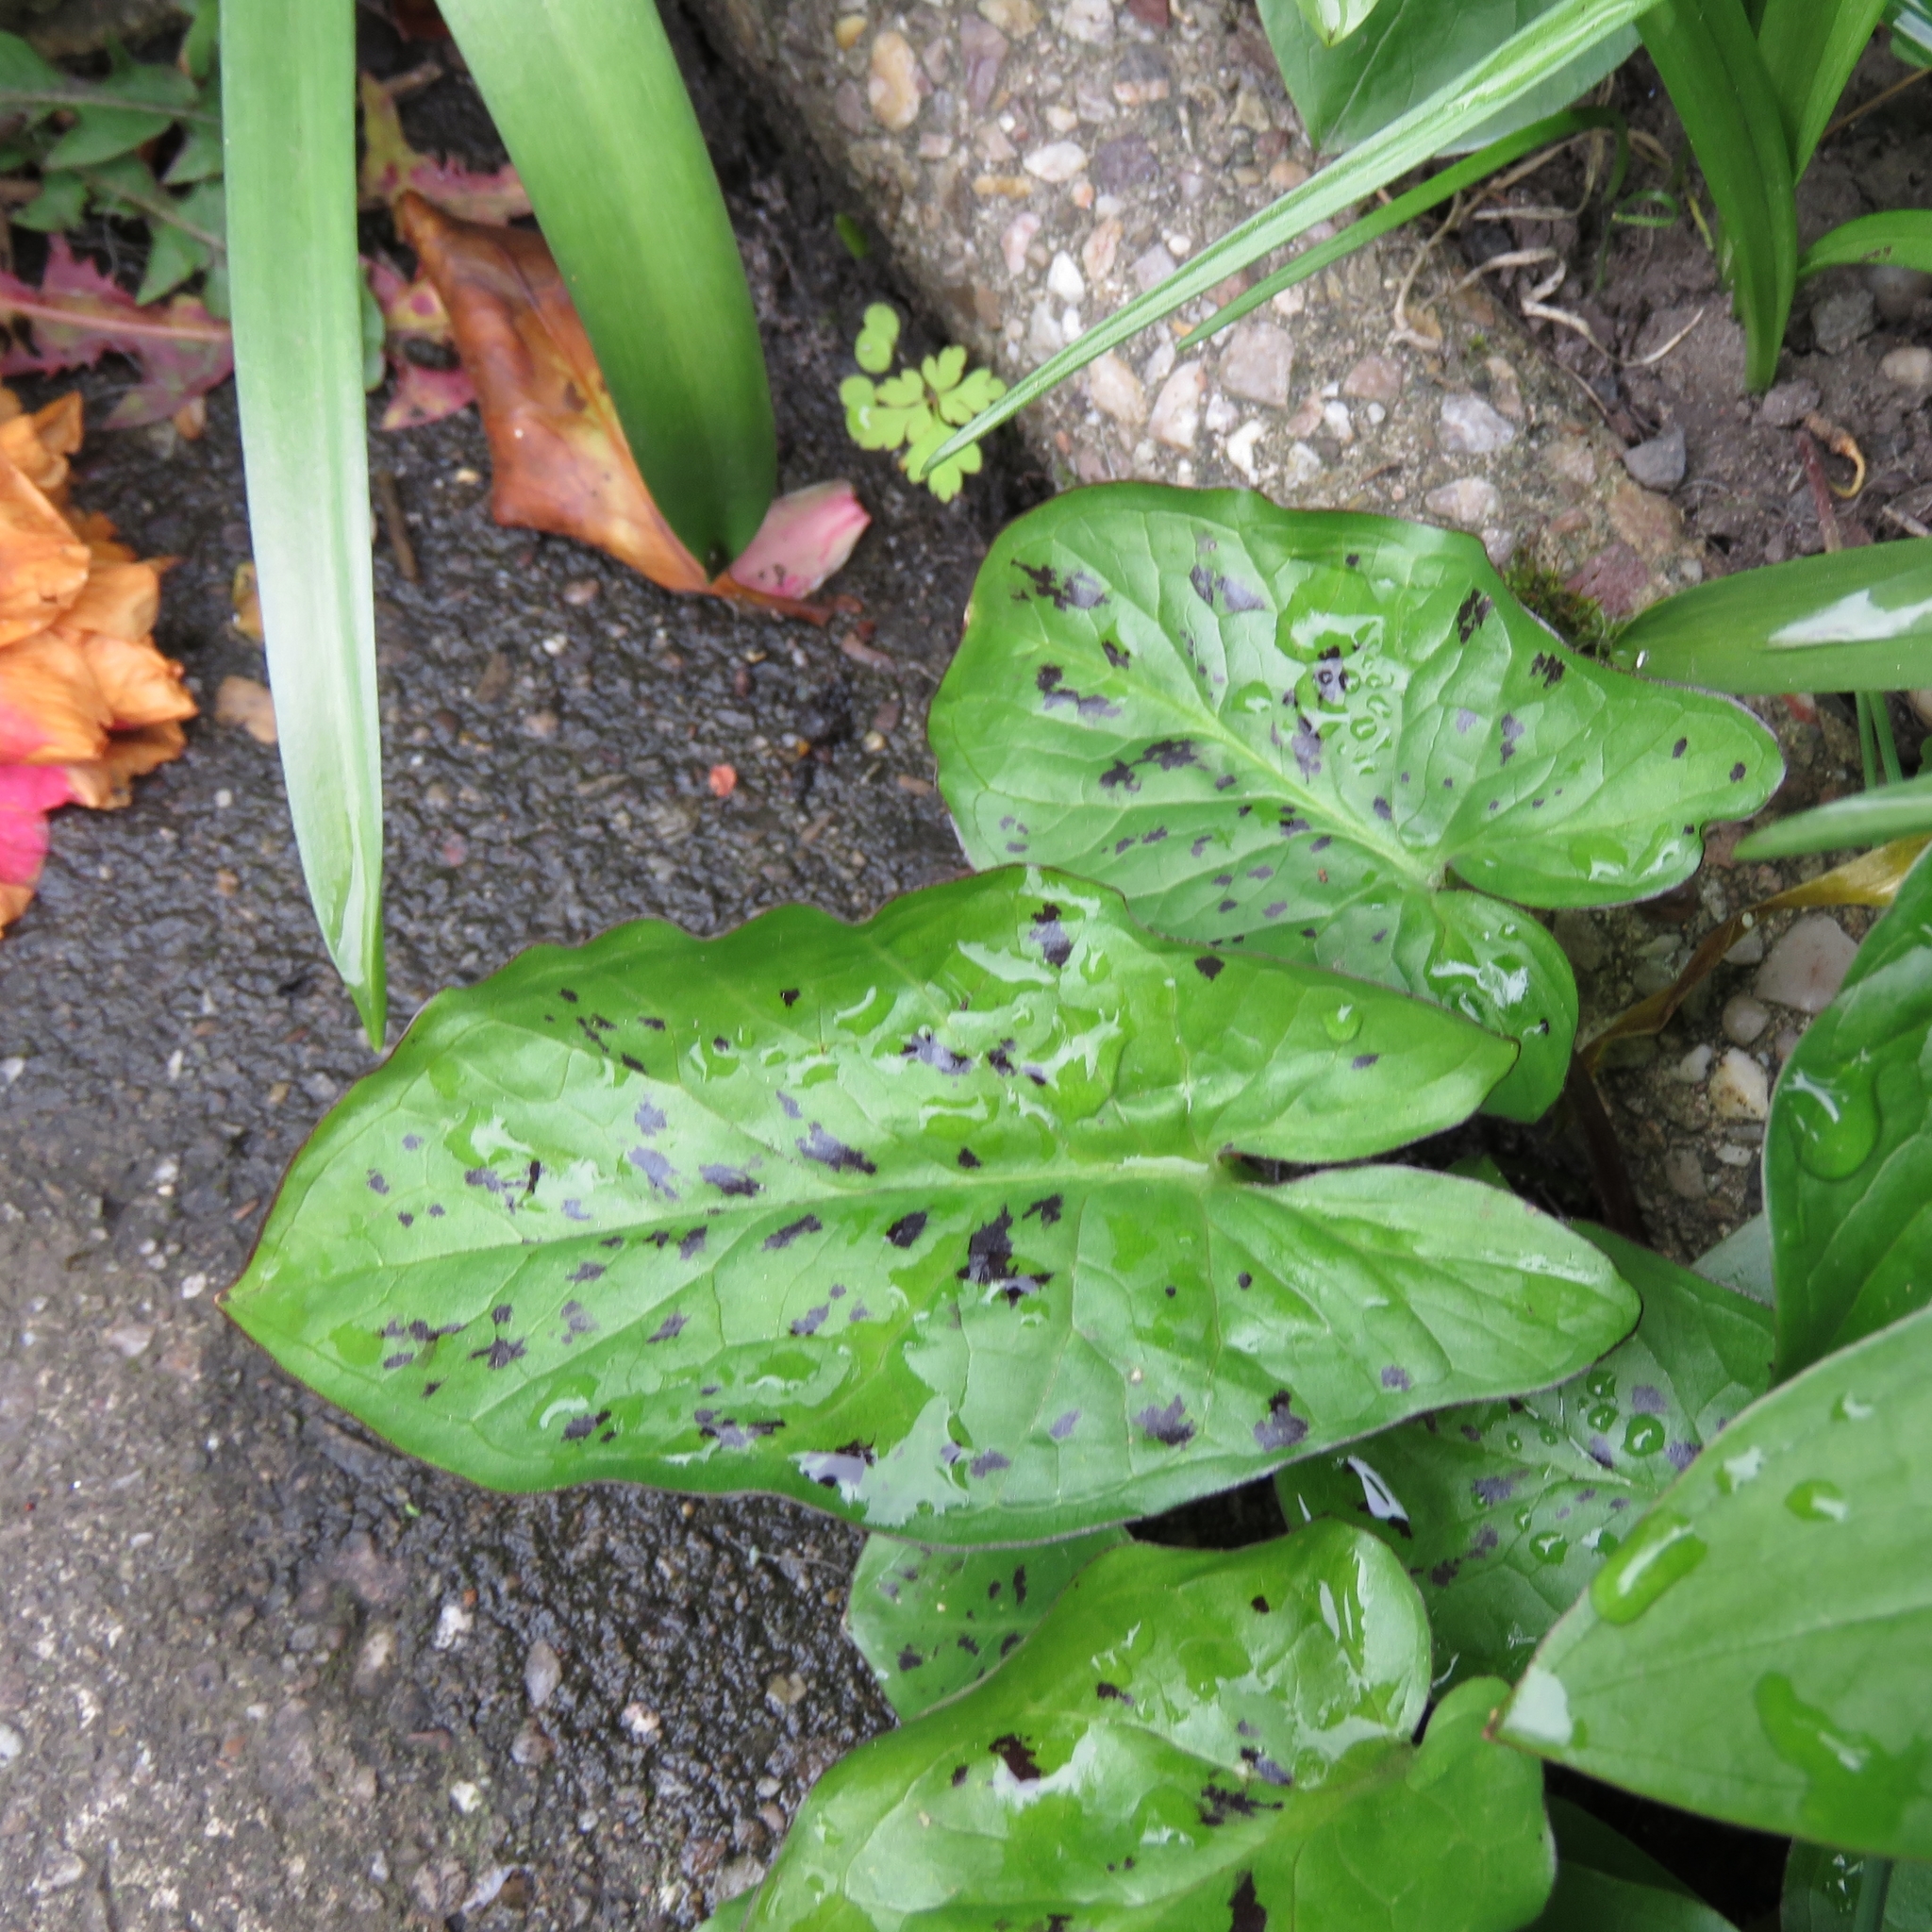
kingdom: Plantae
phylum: Tracheophyta
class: Liliopsida
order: Alismatales
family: Araceae
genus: Arum
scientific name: Arum maculatum
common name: Lords-and-ladies
